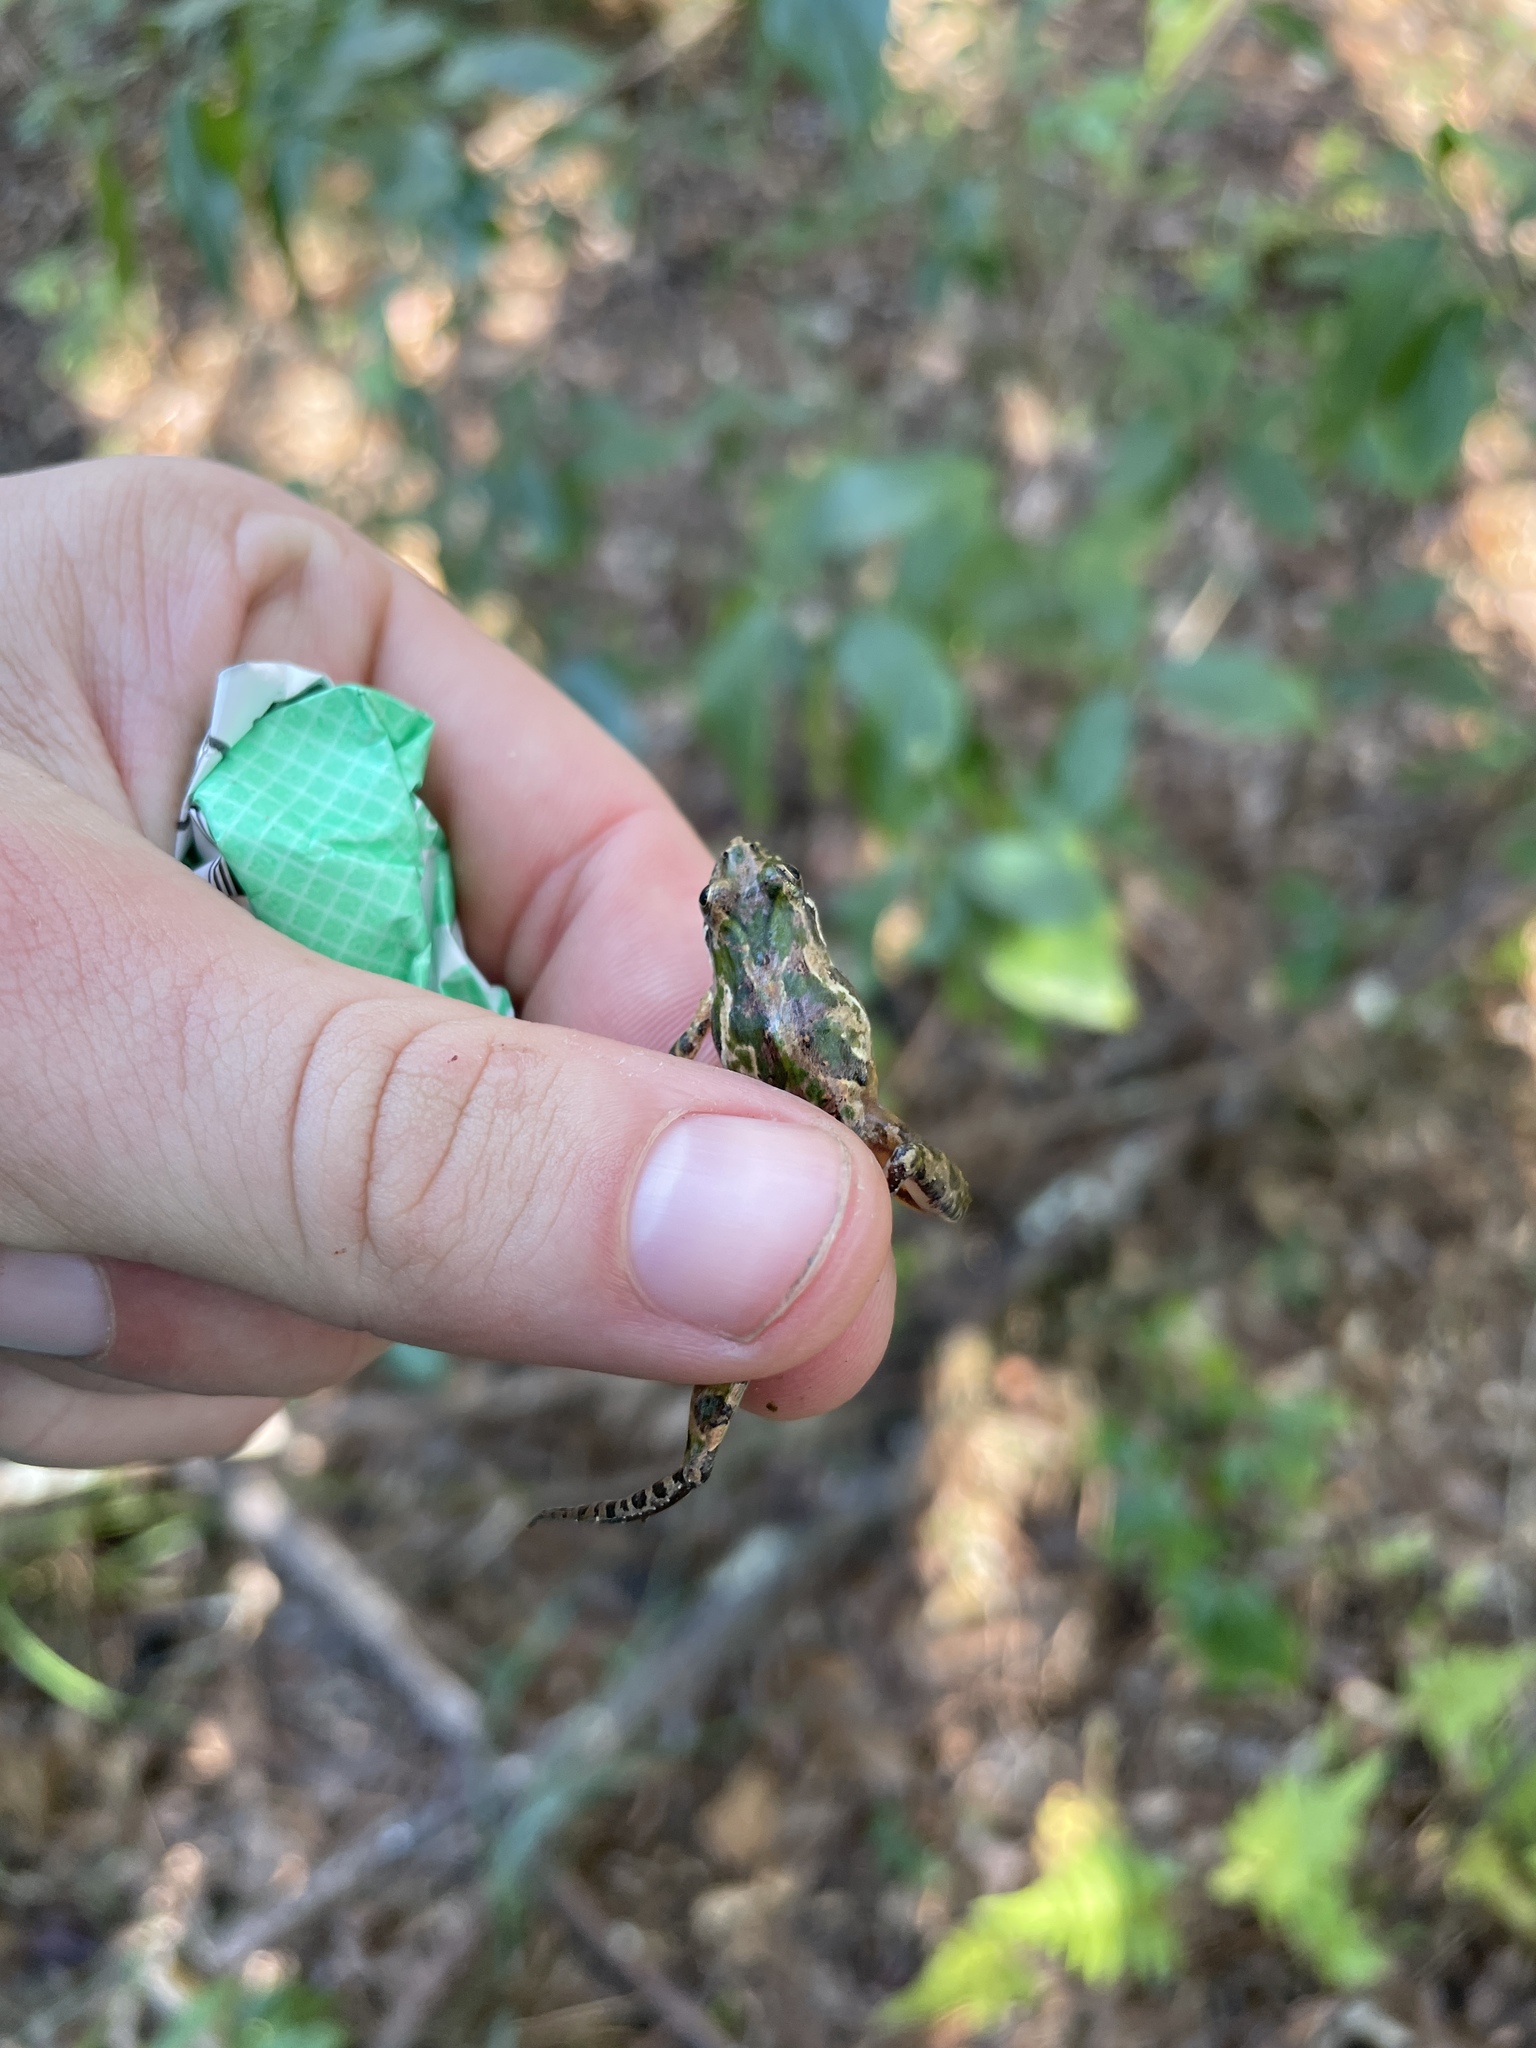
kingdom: Animalia
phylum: Chordata
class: Amphibia
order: Anura
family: Hylidae
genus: Acris
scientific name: Acris gryllus
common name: Southern cricket frog
